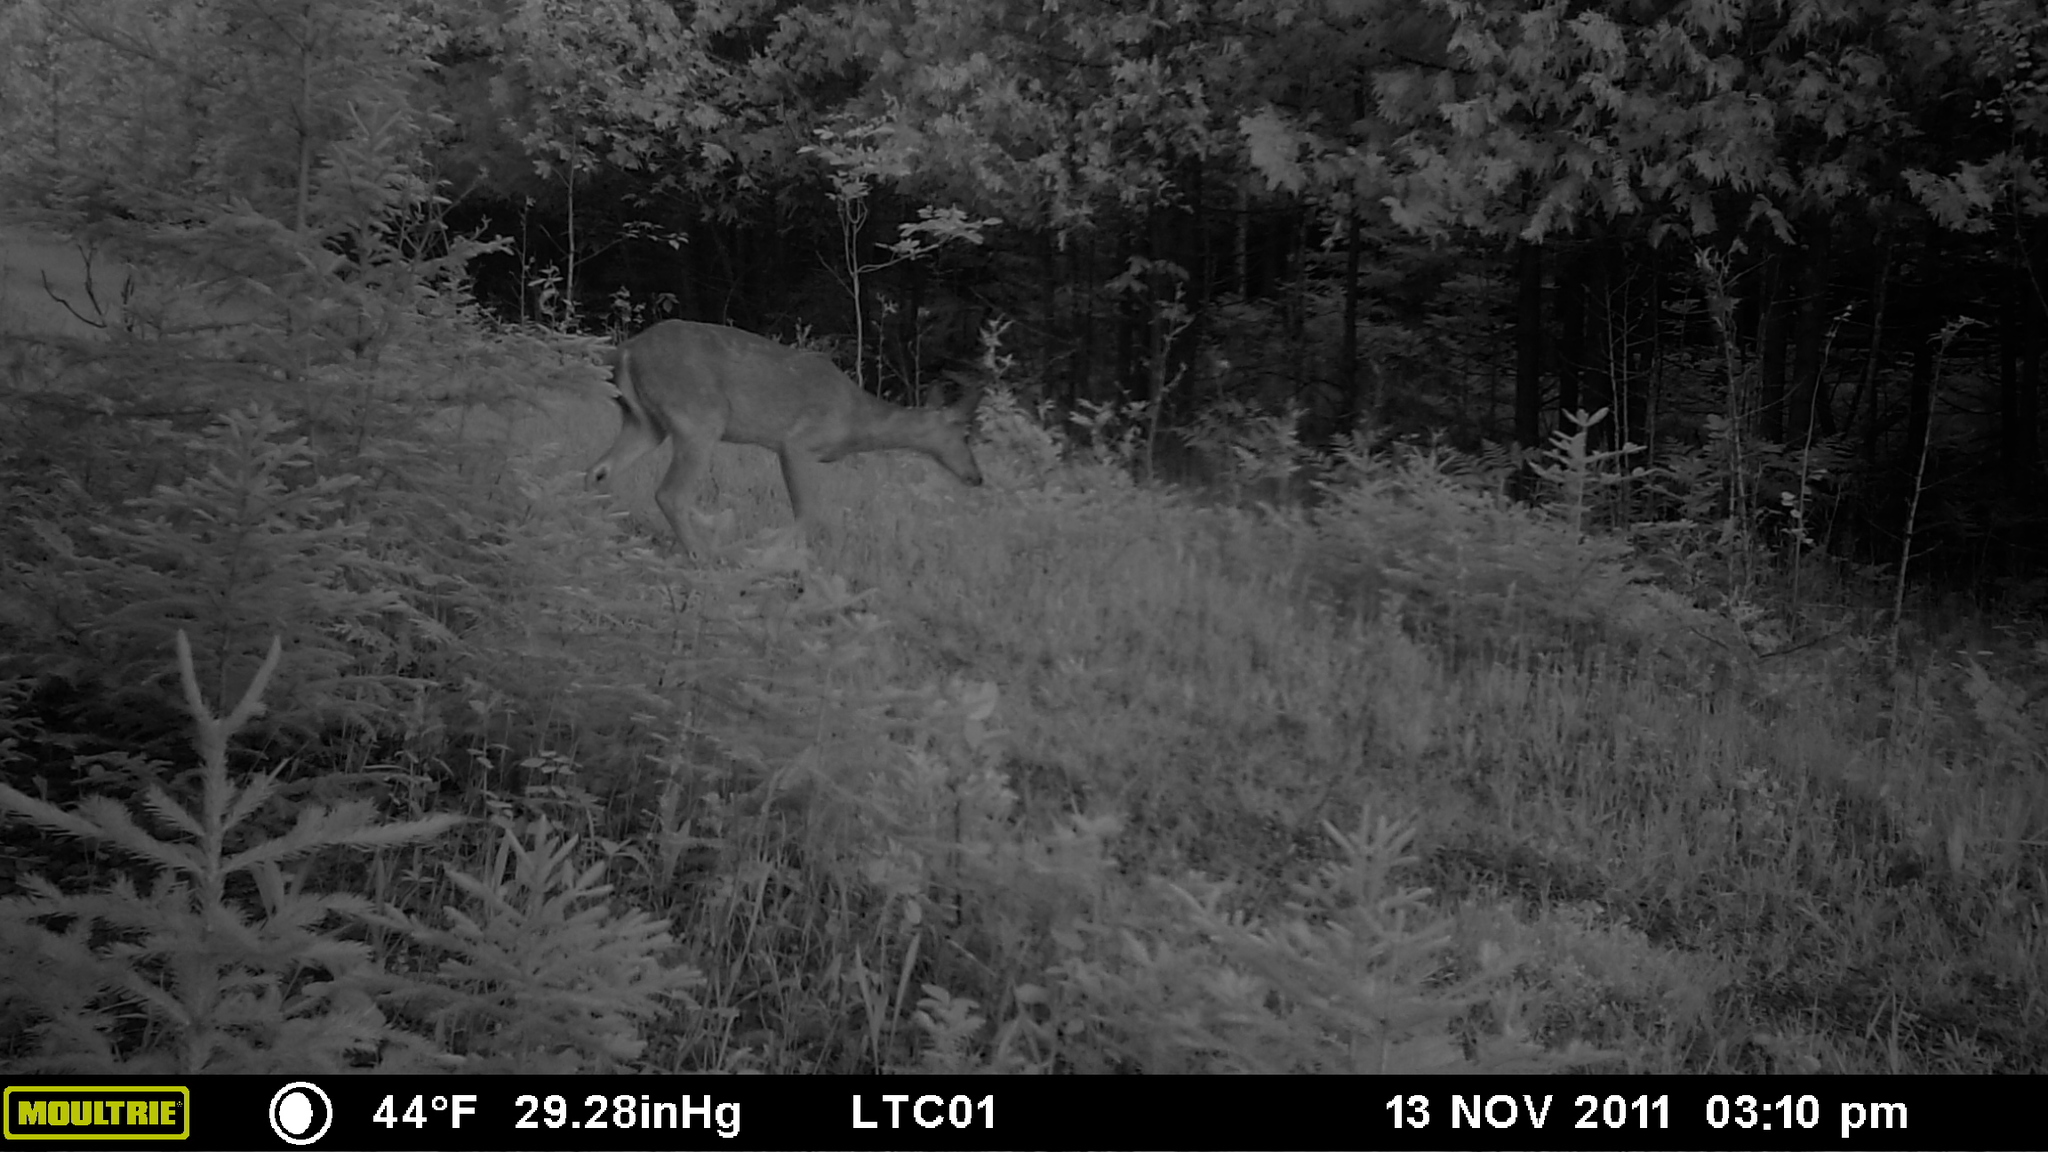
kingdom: Animalia
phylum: Chordata
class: Mammalia
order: Artiodactyla
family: Cervidae
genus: Odocoileus
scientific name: Odocoileus virginianus
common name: White-tailed deer
